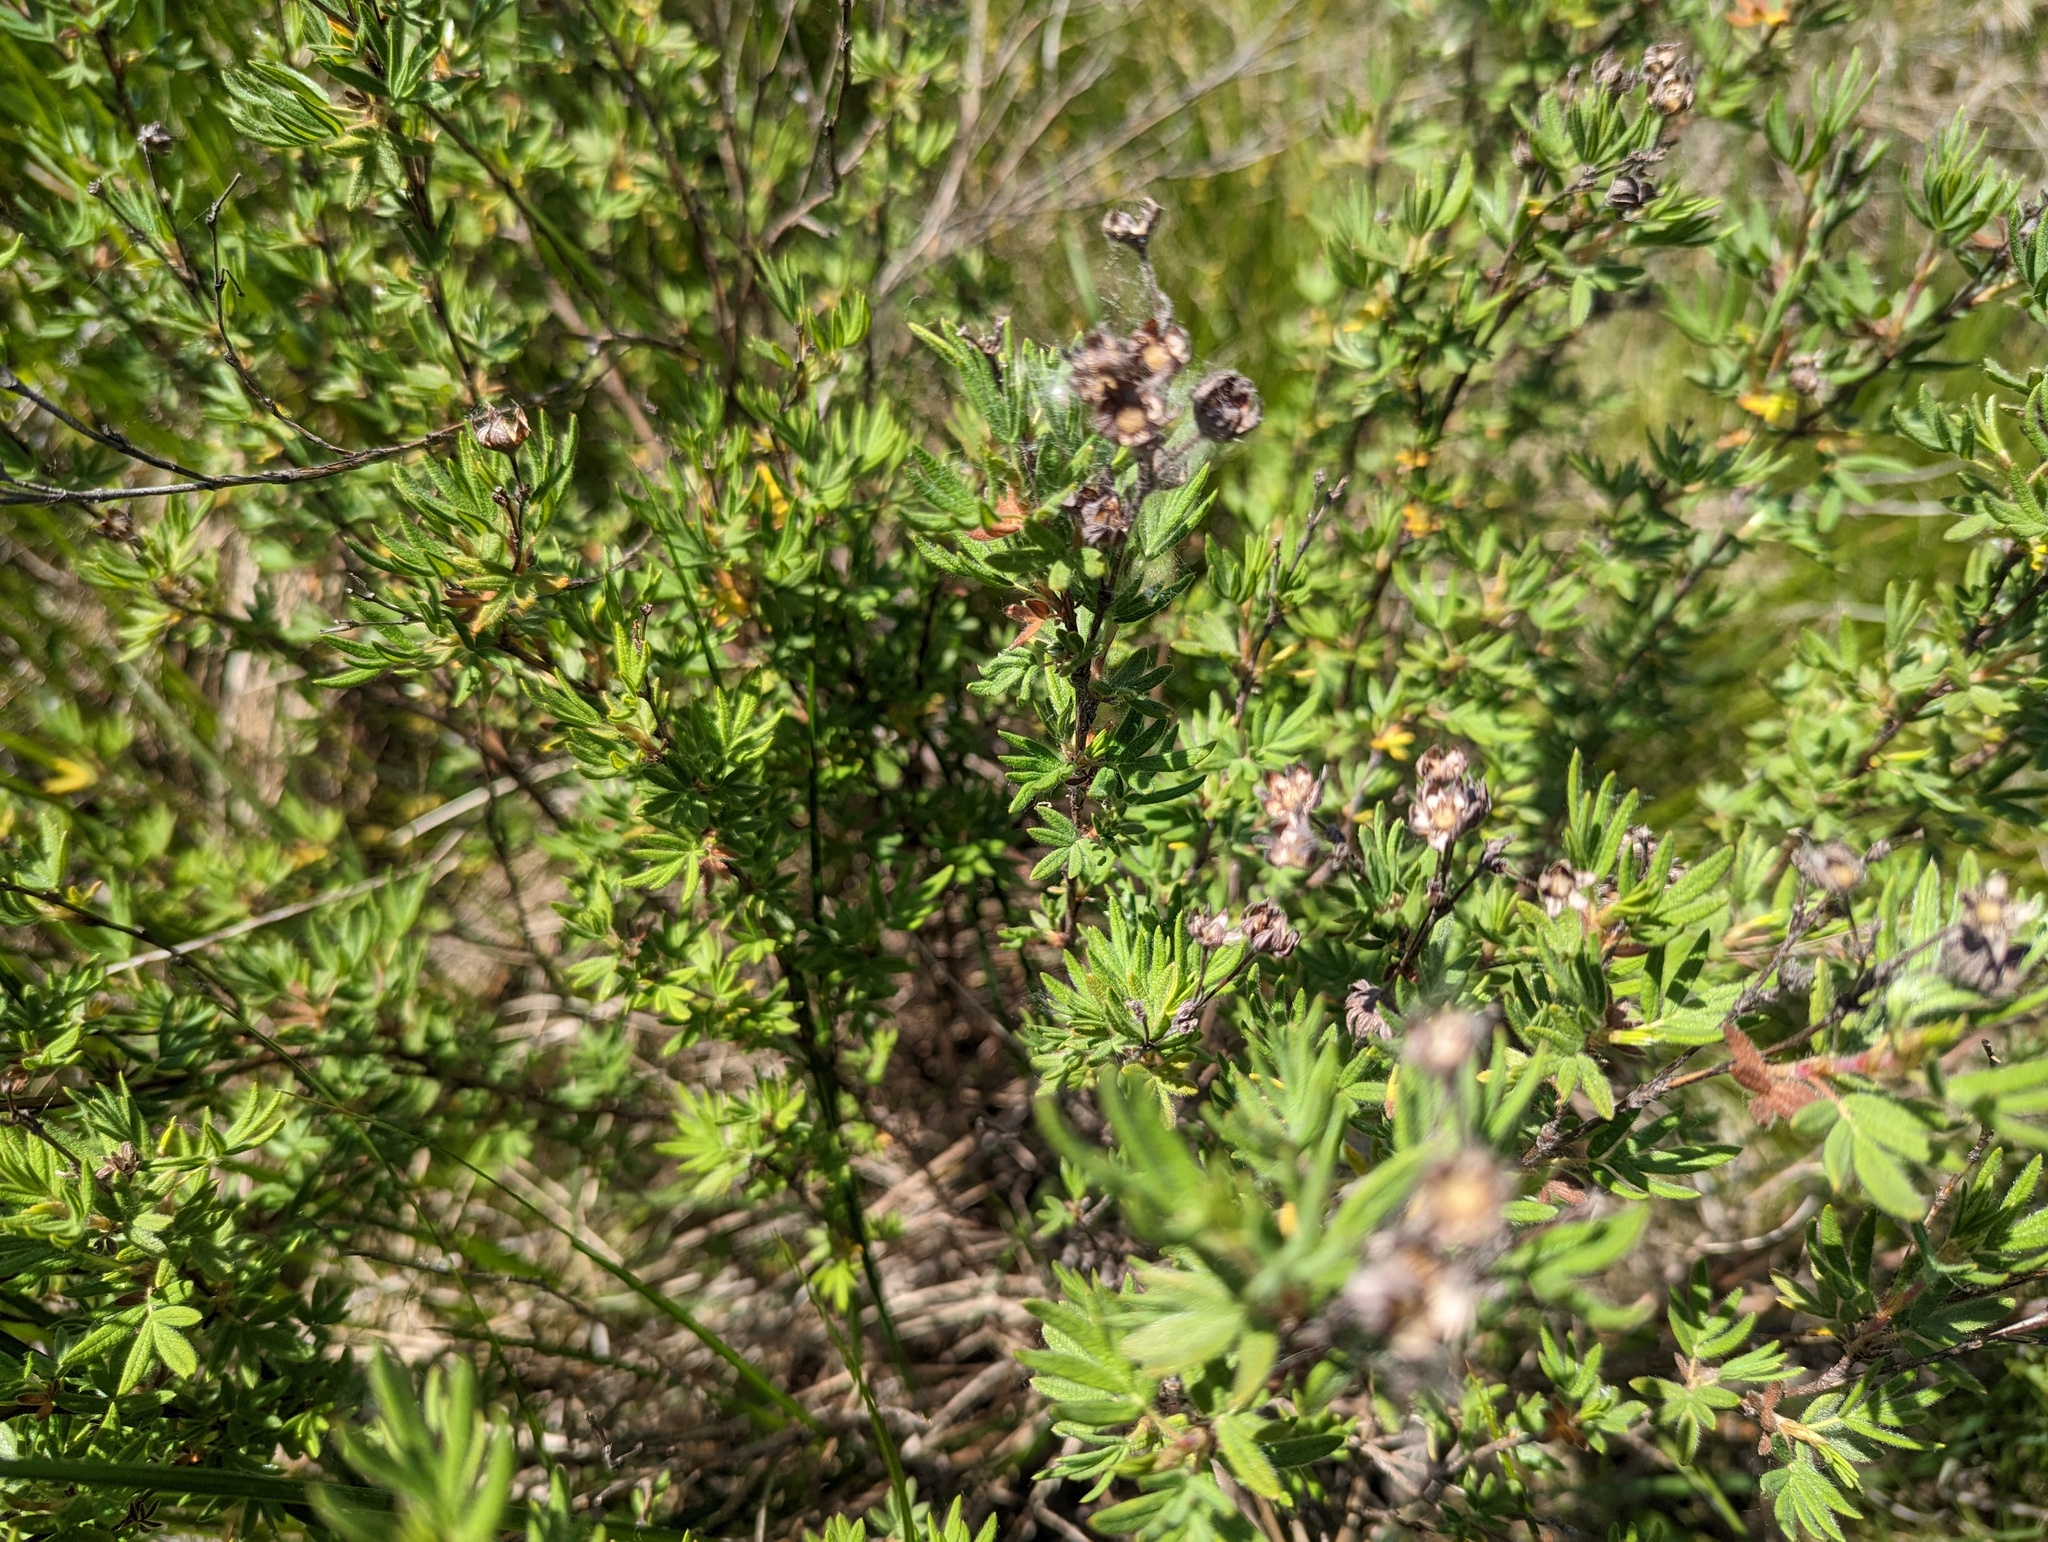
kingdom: Plantae
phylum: Tracheophyta
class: Magnoliopsida
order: Rosales
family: Rosaceae
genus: Dasiphora
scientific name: Dasiphora fruticosa
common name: Shrubby cinquefoil
